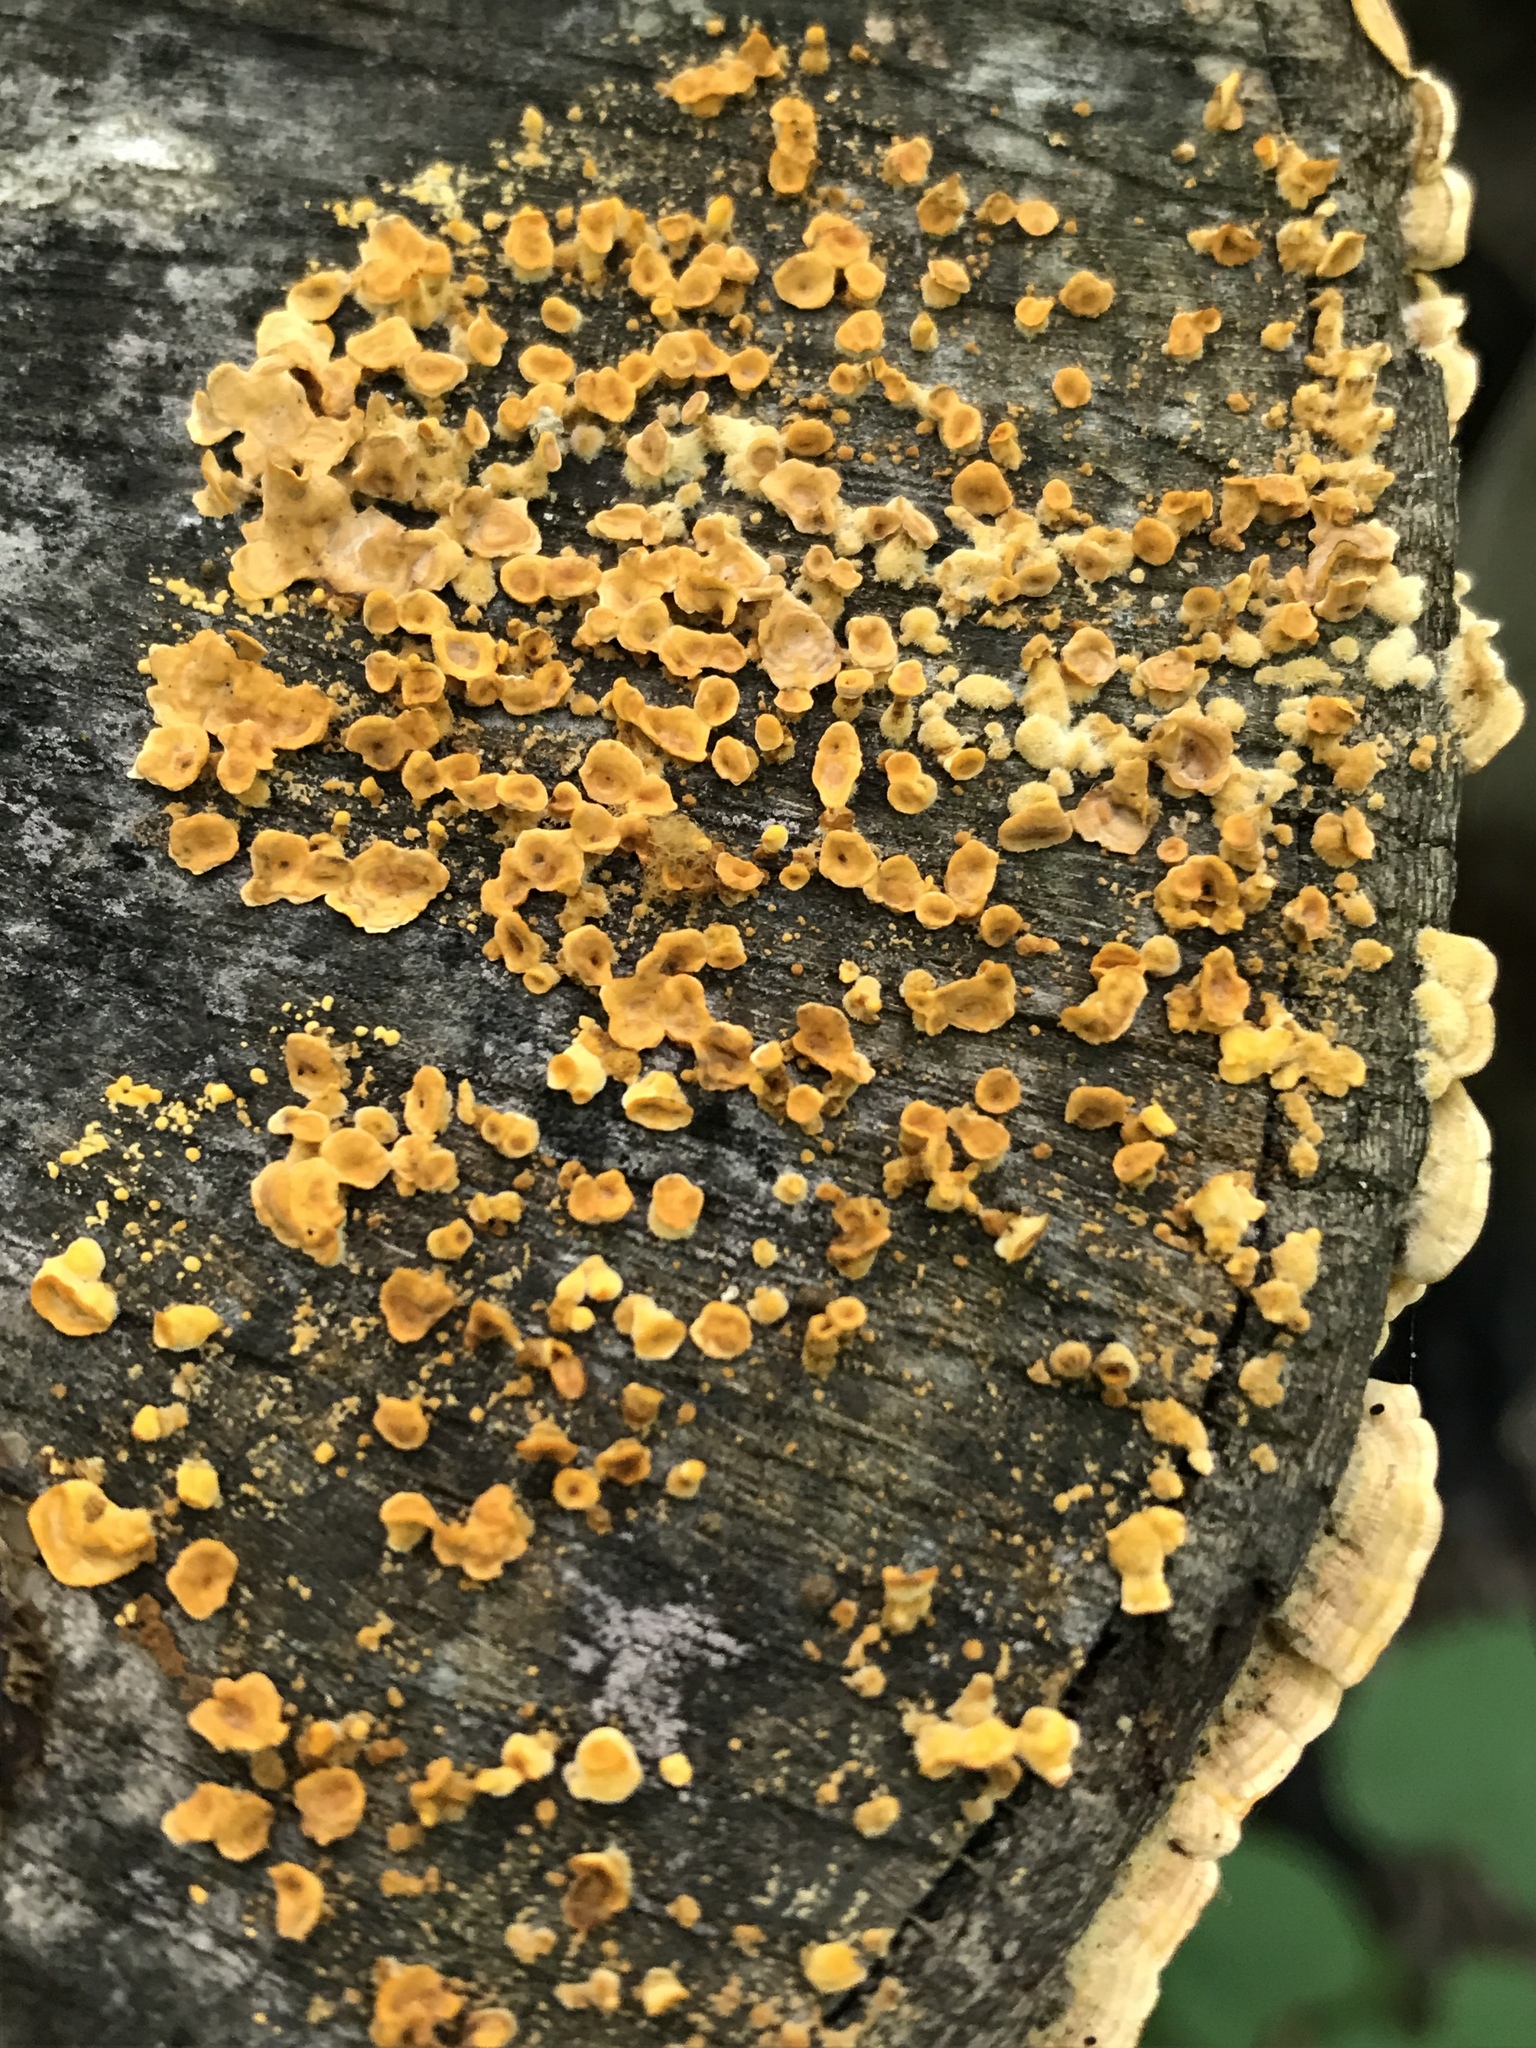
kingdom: Fungi
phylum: Basidiomycota
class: Agaricomycetes
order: Russulales
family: Stereaceae
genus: Stereum
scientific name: Stereum complicatum
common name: Crowded parchment
